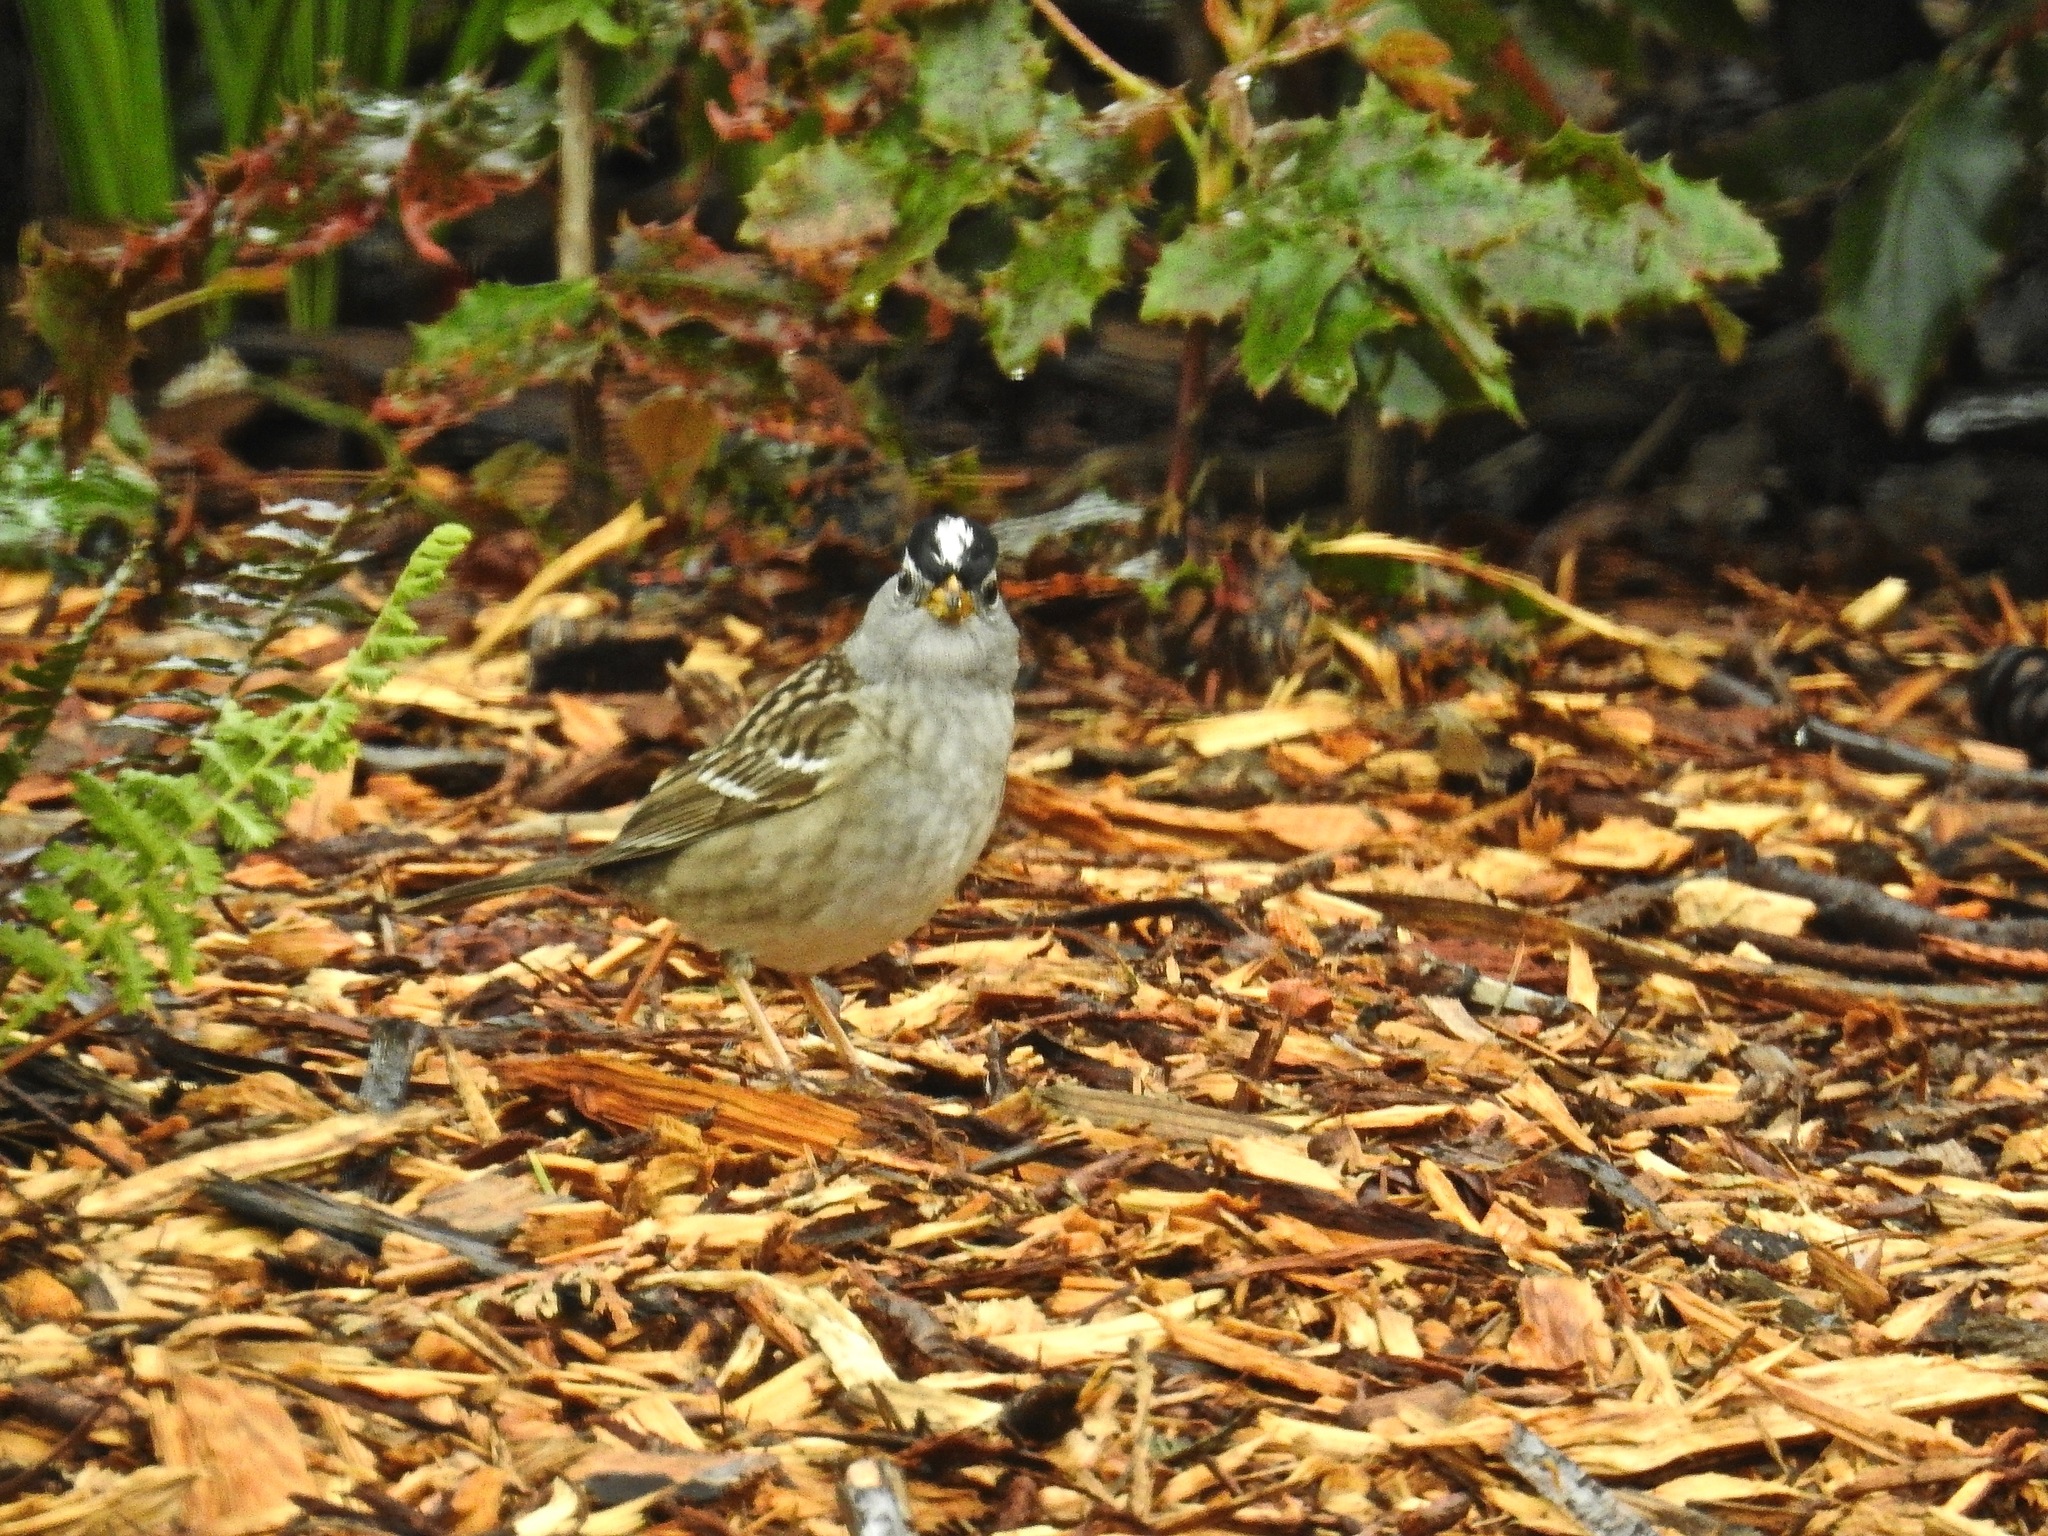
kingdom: Animalia
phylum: Chordata
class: Aves
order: Passeriformes
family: Passerellidae
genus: Zonotrichia
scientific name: Zonotrichia leucophrys
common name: White-crowned sparrow
